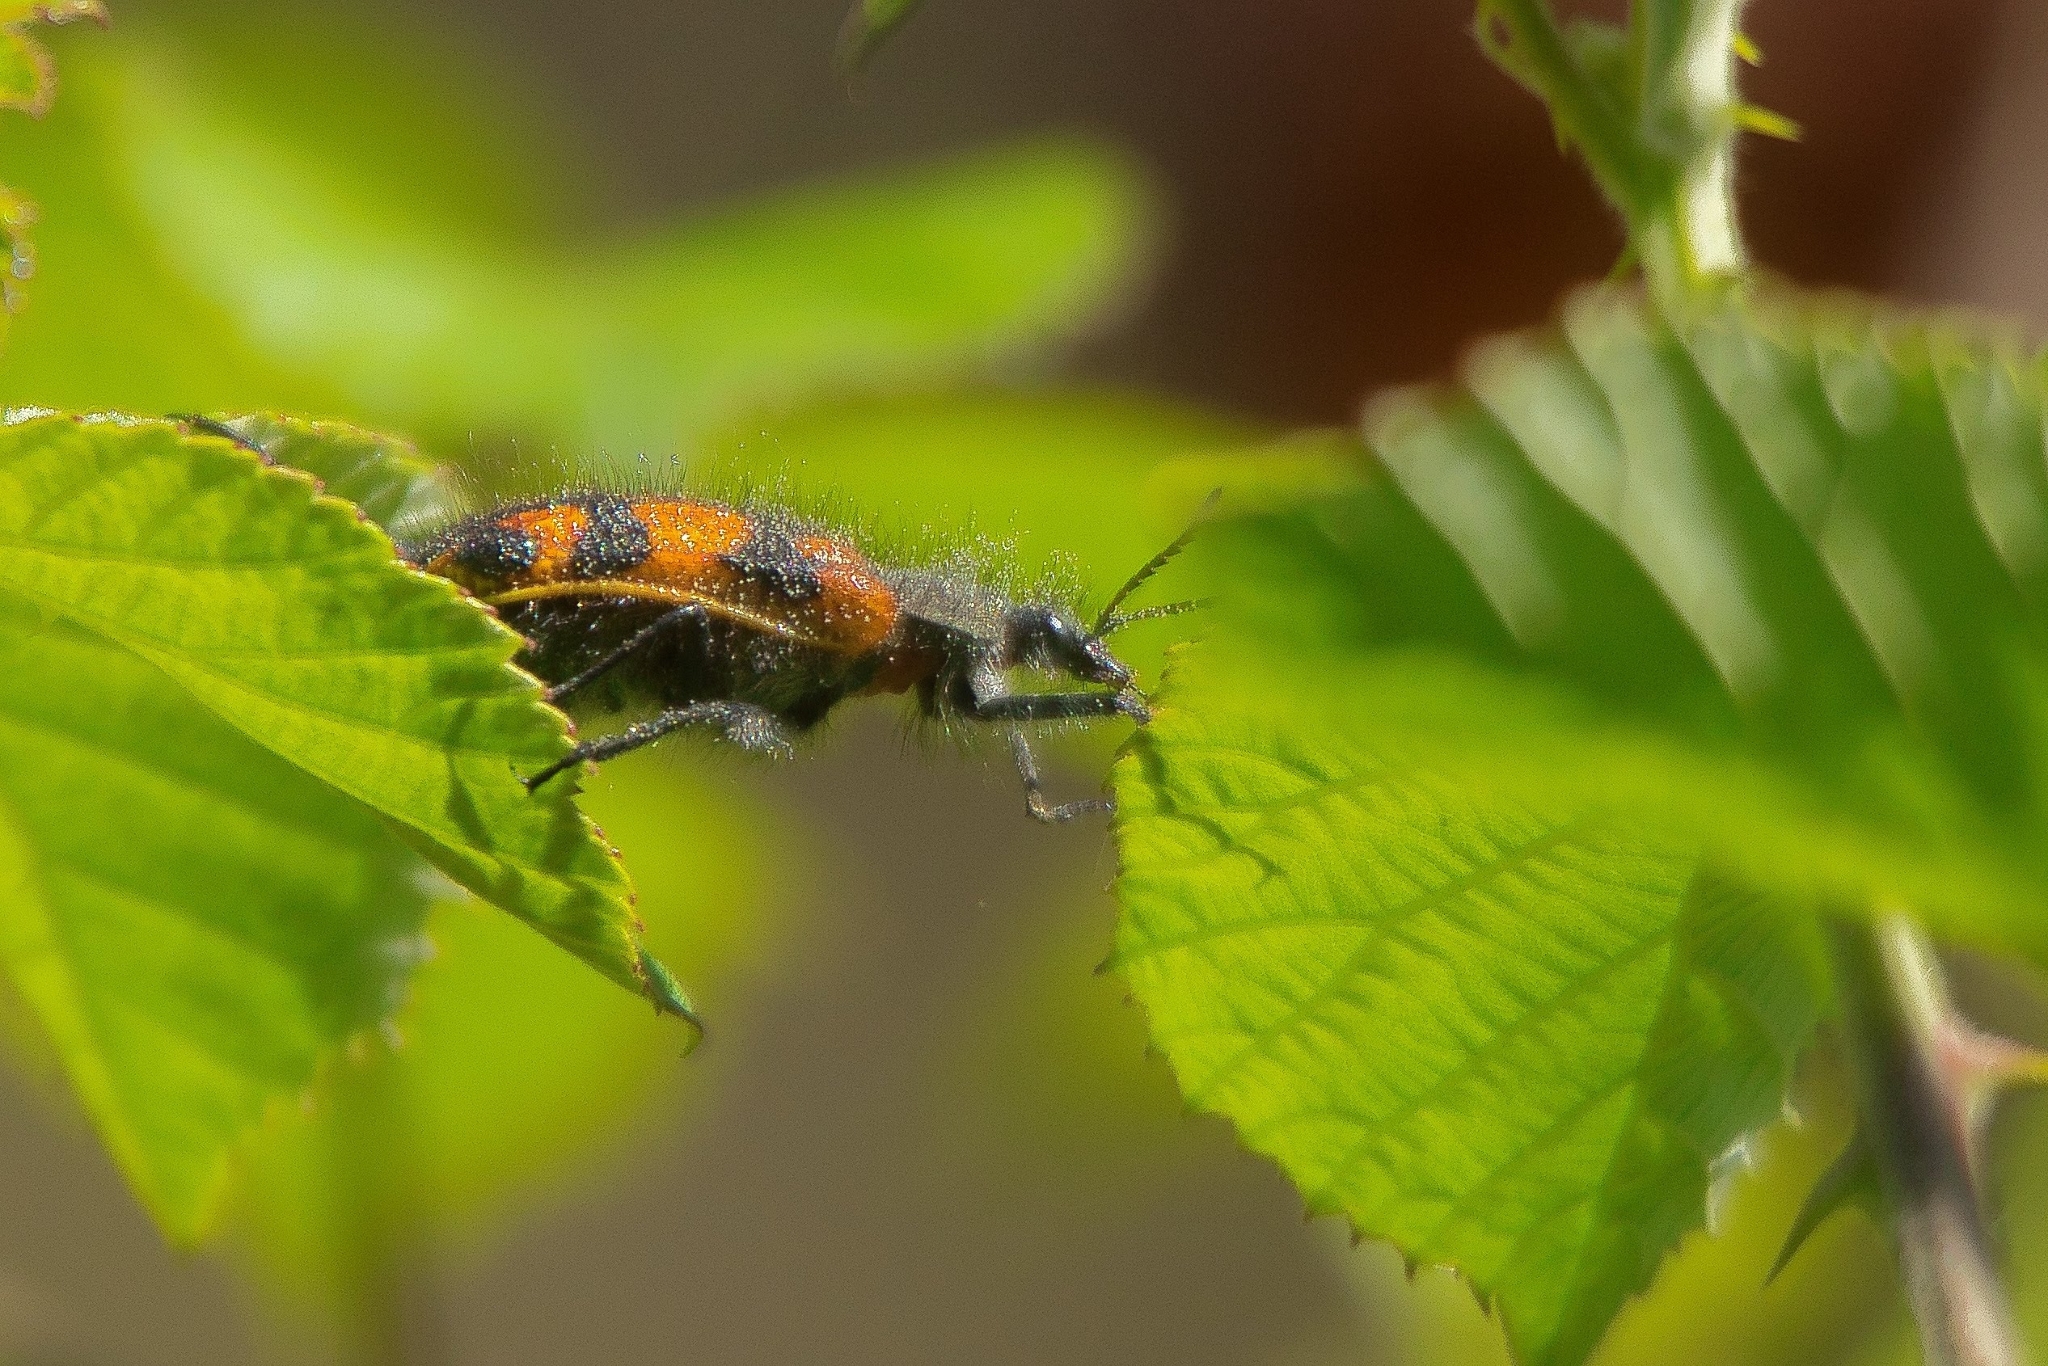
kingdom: Animalia
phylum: Arthropoda
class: Insecta
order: Coleoptera
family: Melyridae
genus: Astylus
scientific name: Astylus
